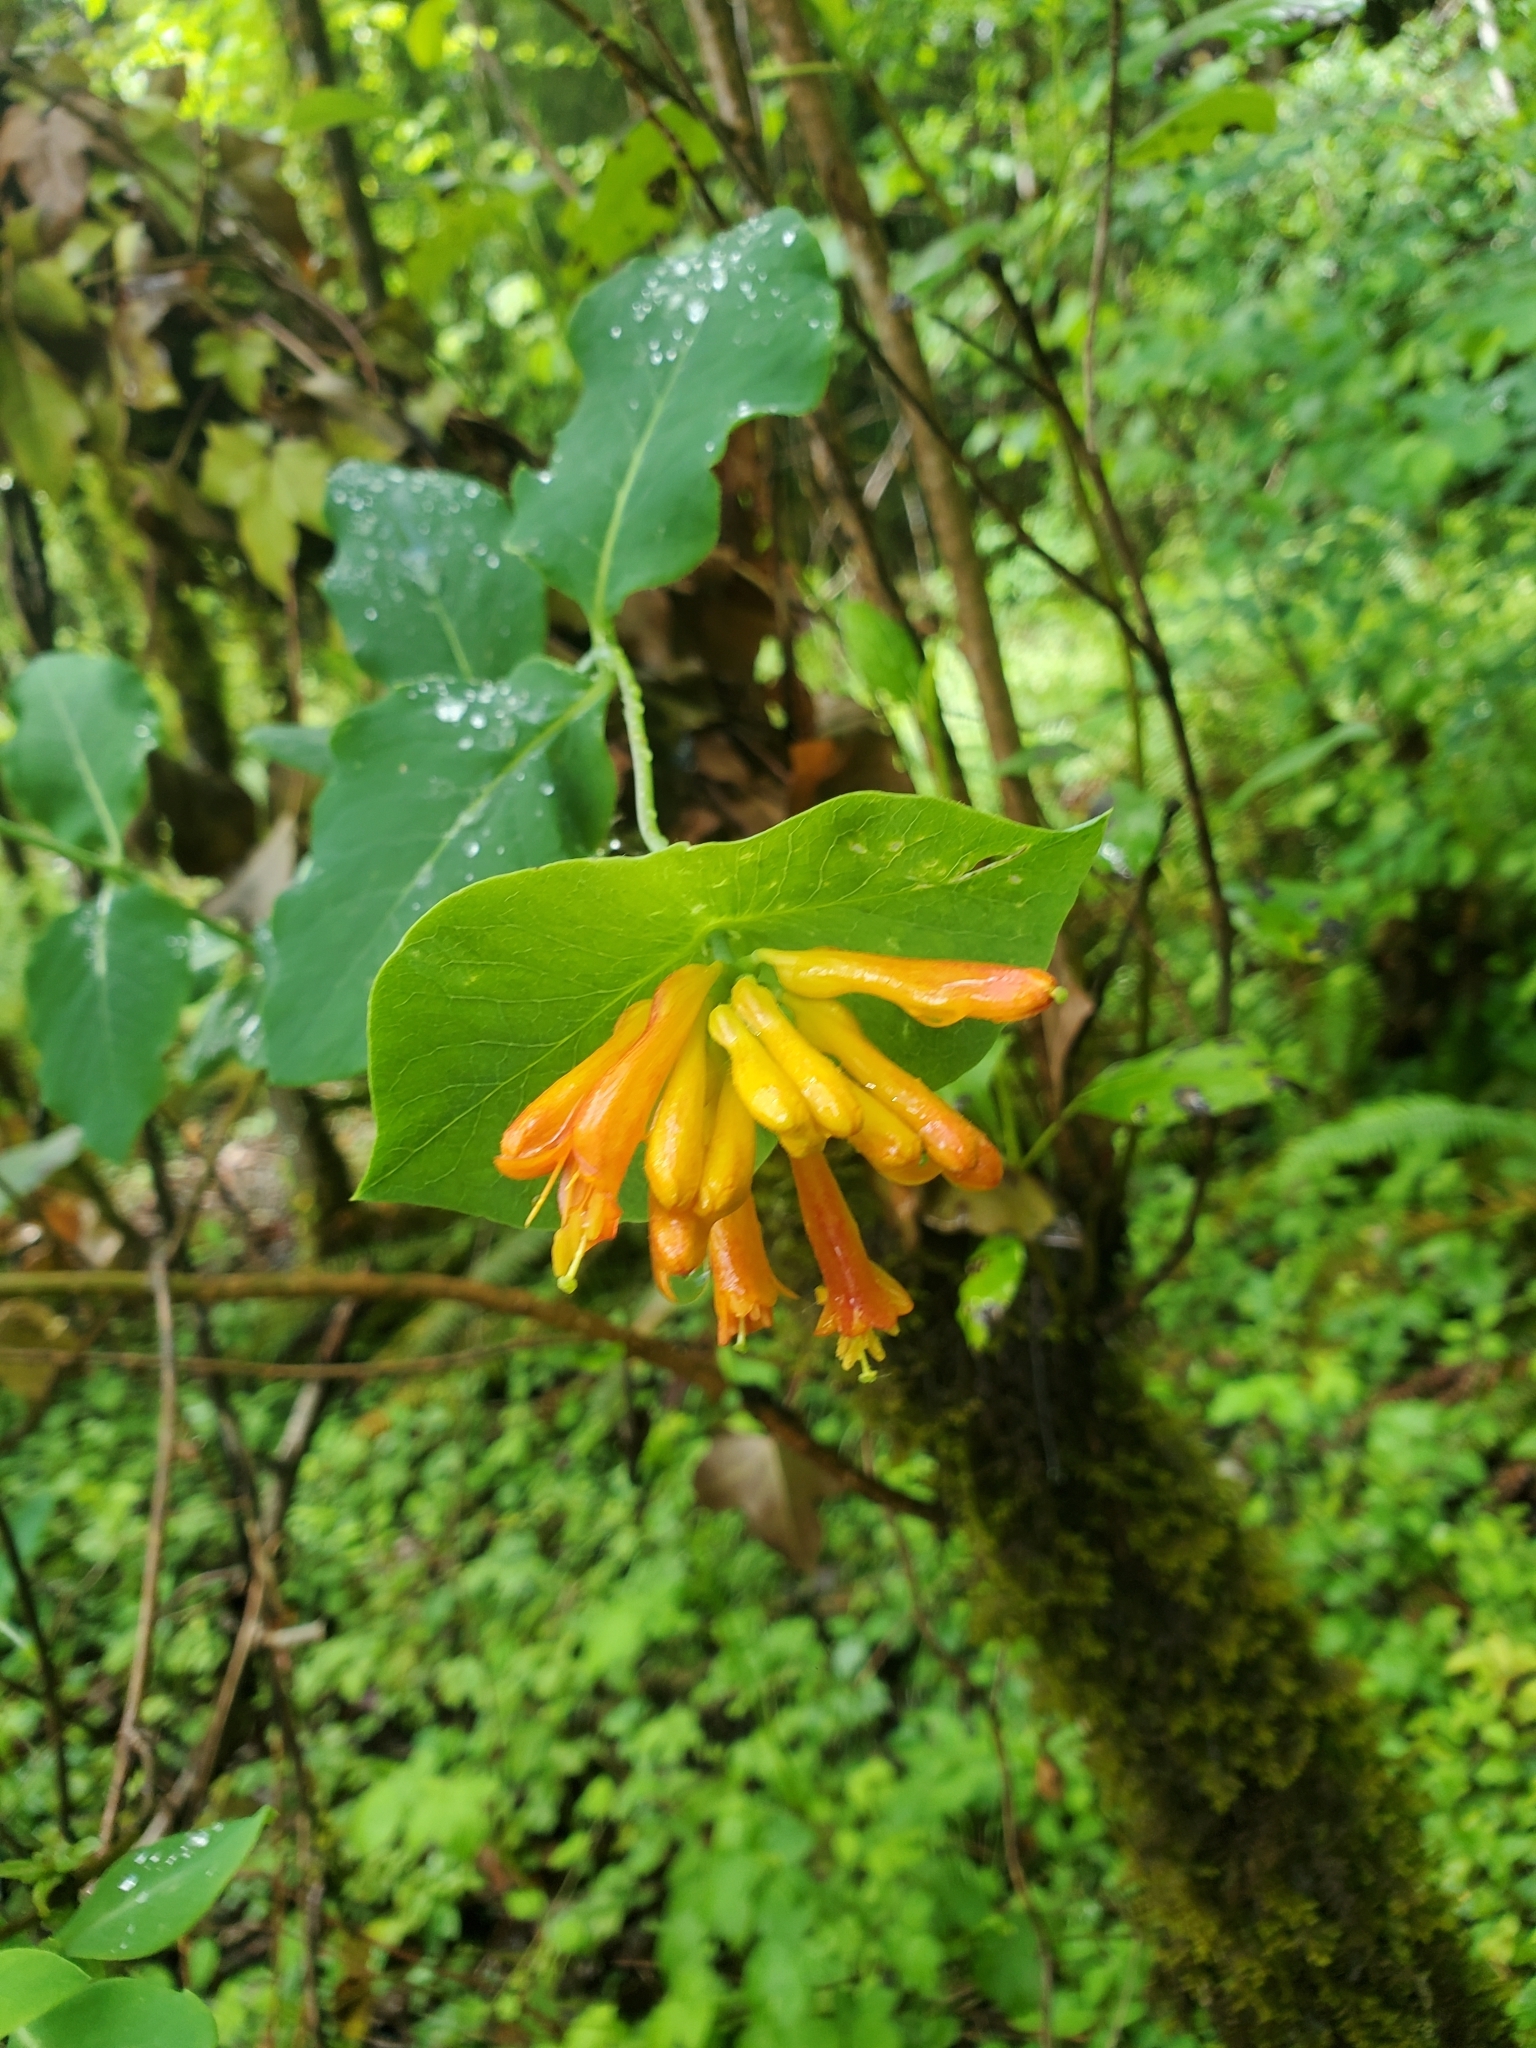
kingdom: Plantae
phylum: Tracheophyta
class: Magnoliopsida
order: Dipsacales
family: Caprifoliaceae
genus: Lonicera
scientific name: Lonicera ciliosa
